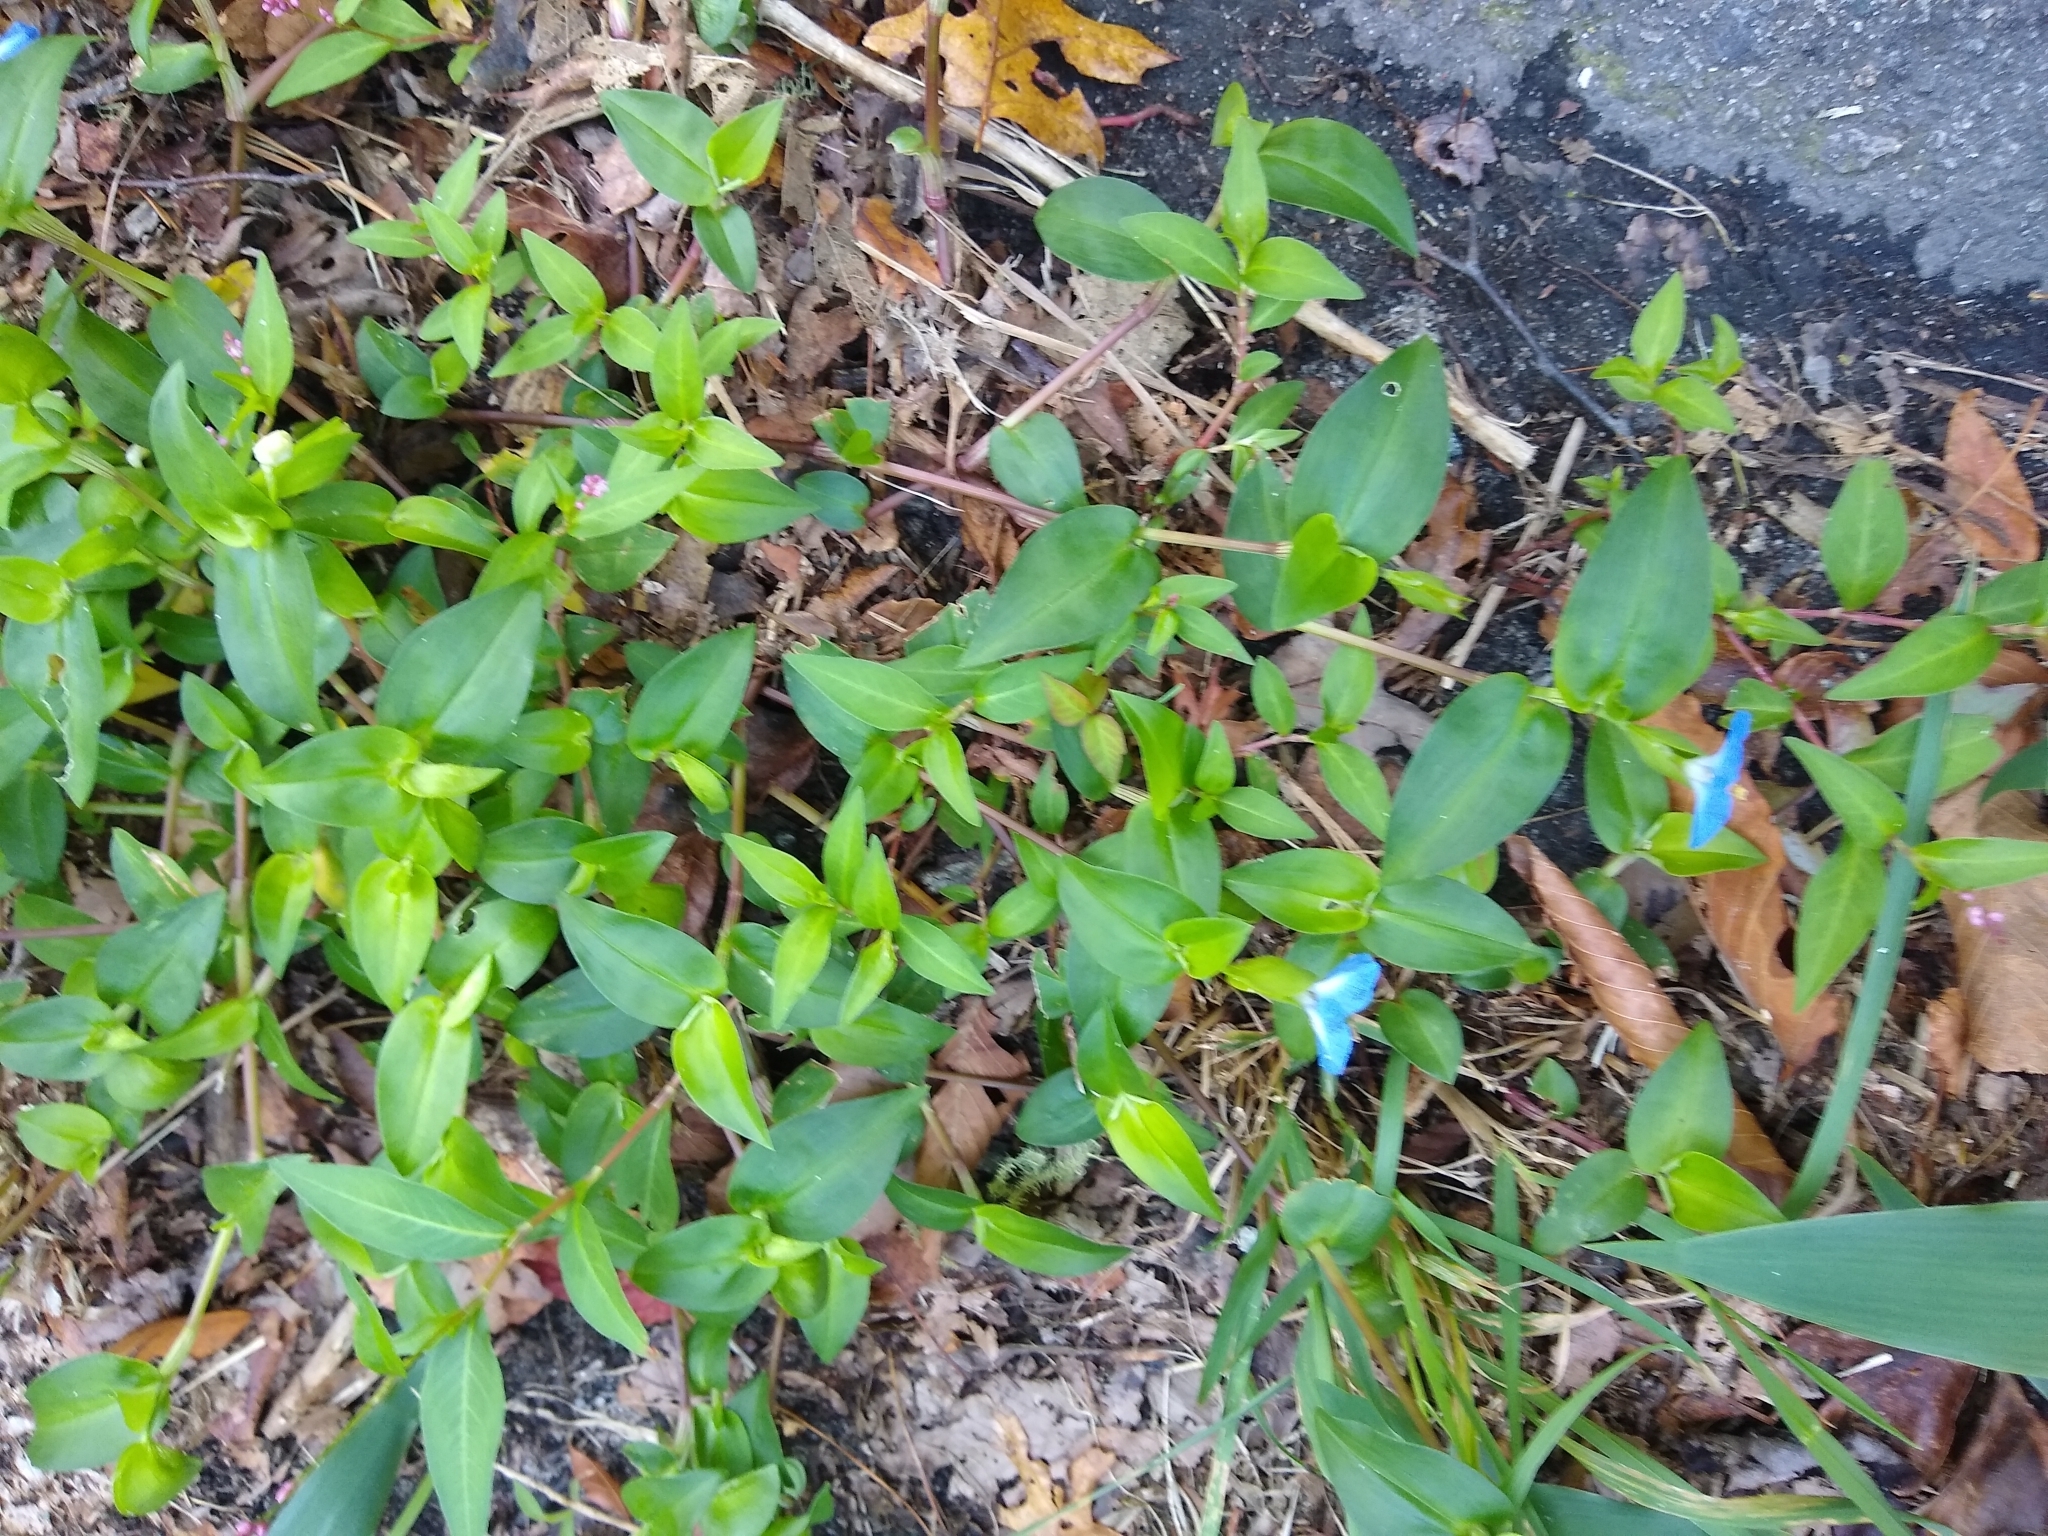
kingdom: Plantae
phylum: Tracheophyta
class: Liliopsida
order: Commelinales
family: Commelinaceae
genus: Commelina
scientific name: Commelina communis
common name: Asiatic dayflower
